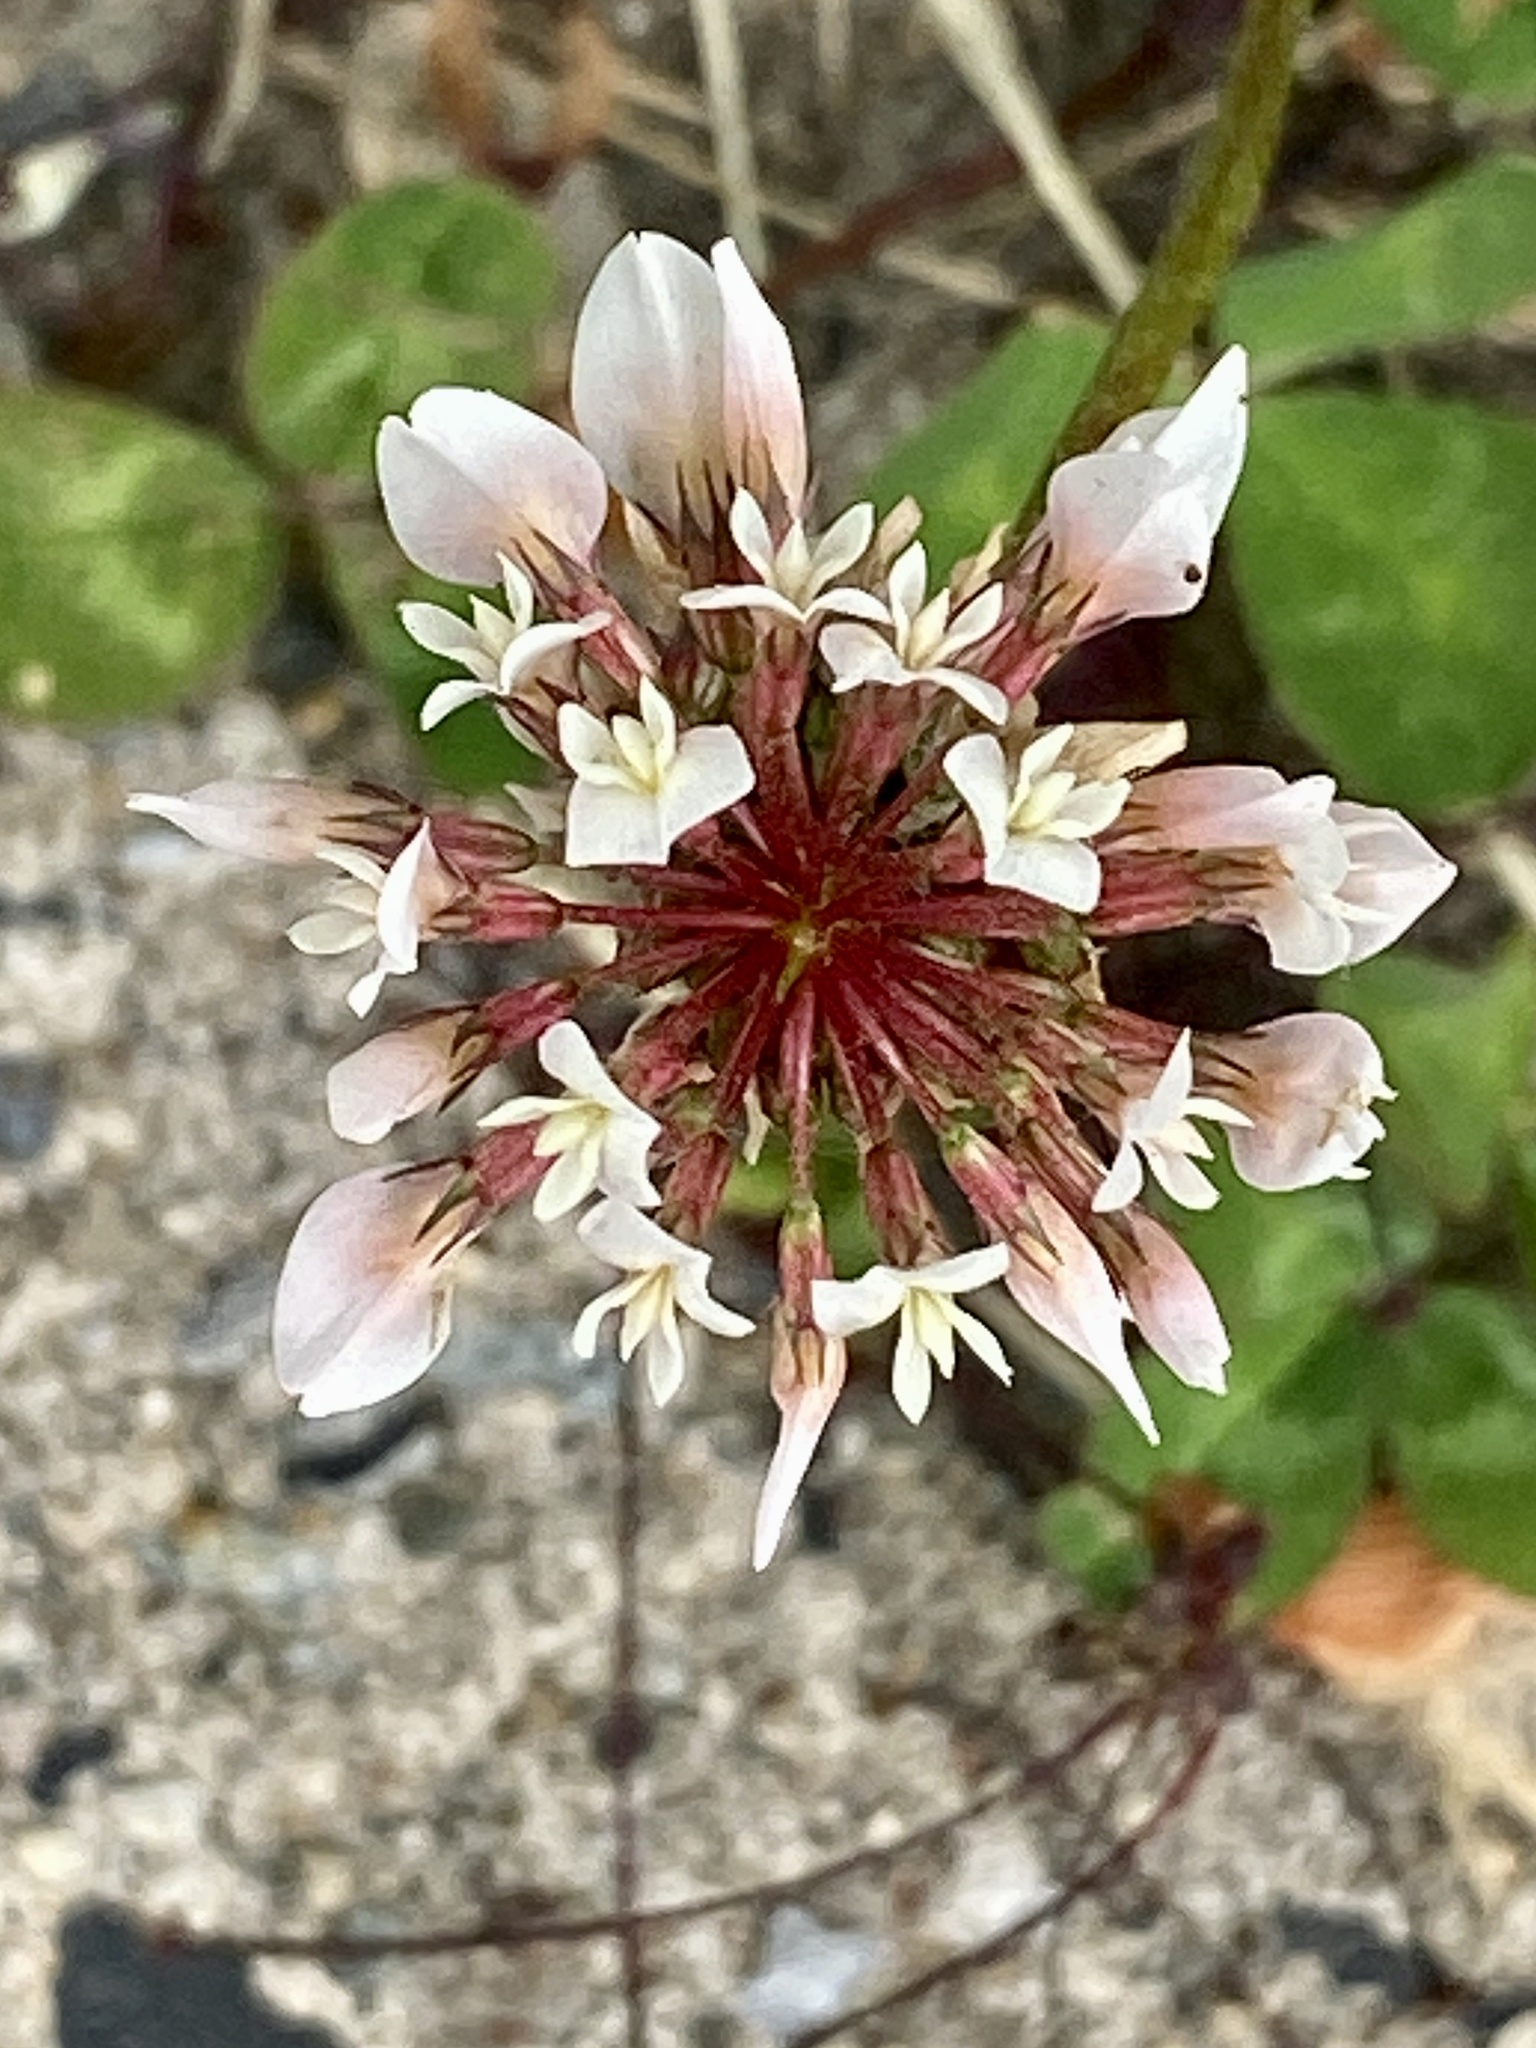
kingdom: Plantae
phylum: Tracheophyta
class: Magnoliopsida
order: Fabales
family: Fabaceae
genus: Trifolium
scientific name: Trifolium repens
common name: White clover
